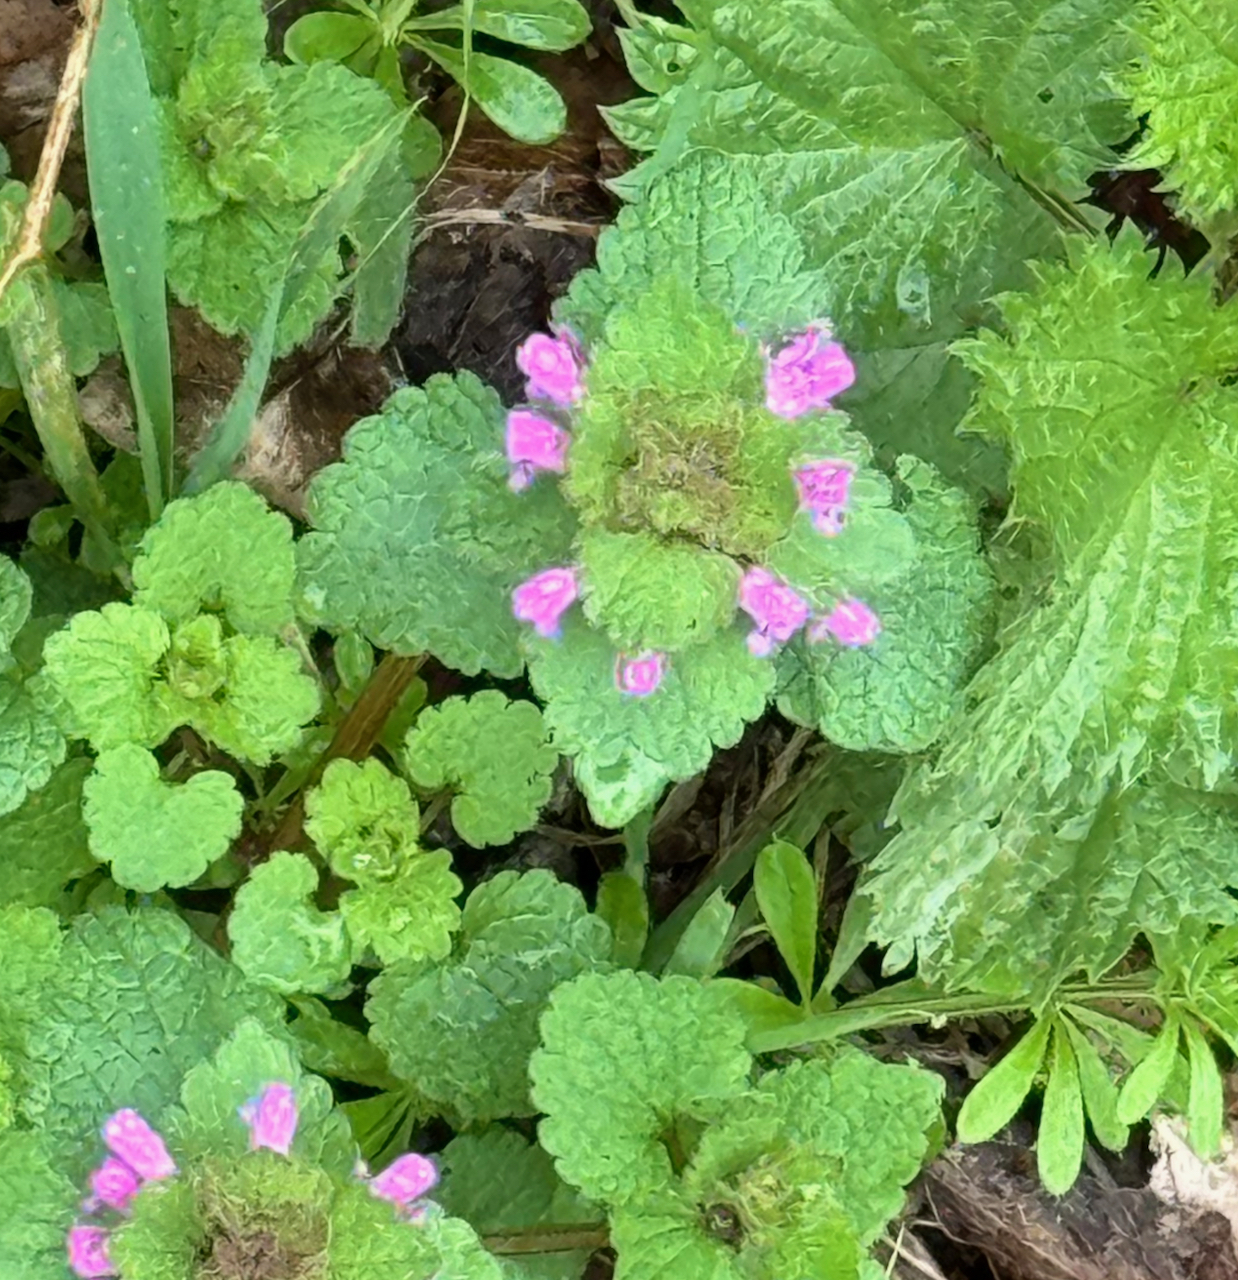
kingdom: Plantae
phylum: Tracheophyta
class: Magnoliopsida
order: Lamiales
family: Lamiaceae
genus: Lamium
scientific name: Lamium purpureum
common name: Red dead-nettle
